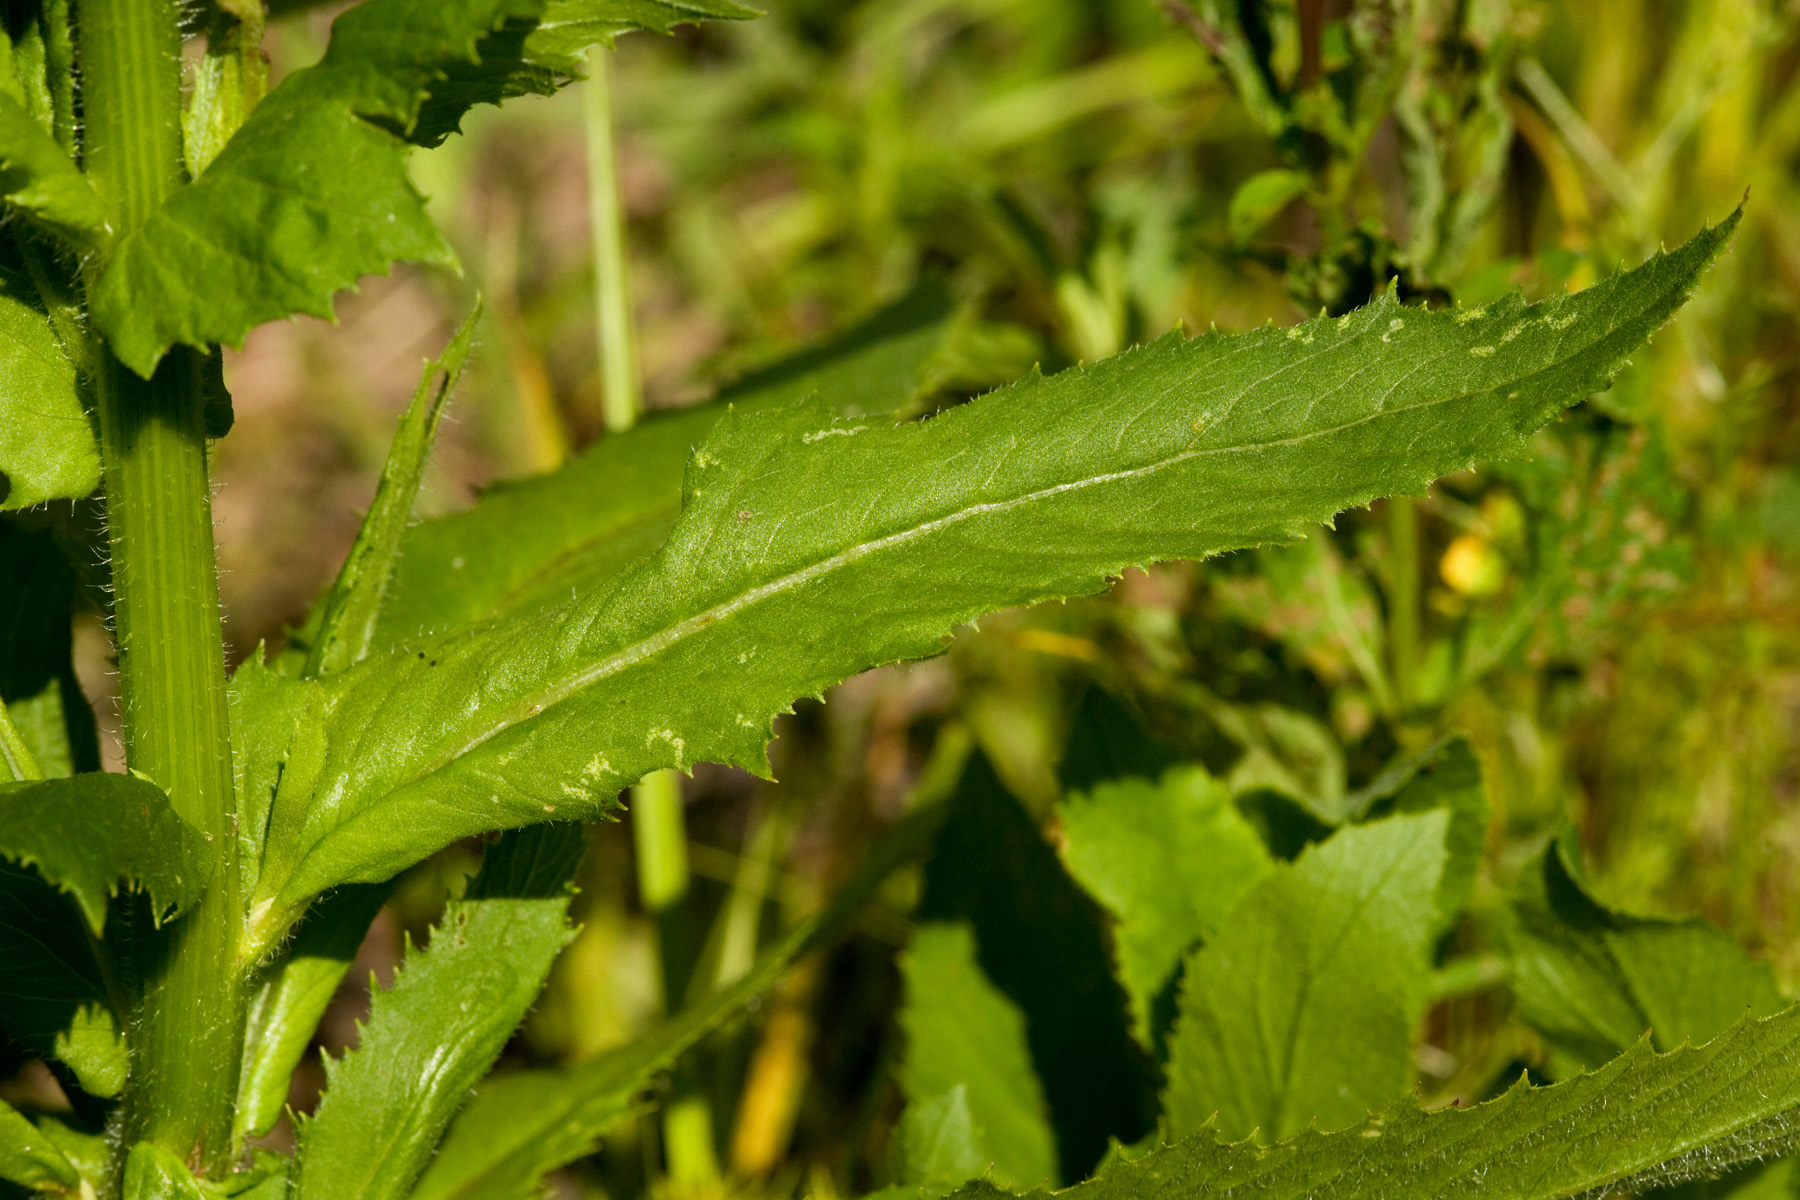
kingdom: Plantae
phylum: Tracheophyta
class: Magnoliopsida
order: Asterales
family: Asteraceae
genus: Erechtites
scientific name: Erechtites hieraciifolius
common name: American burnweed
